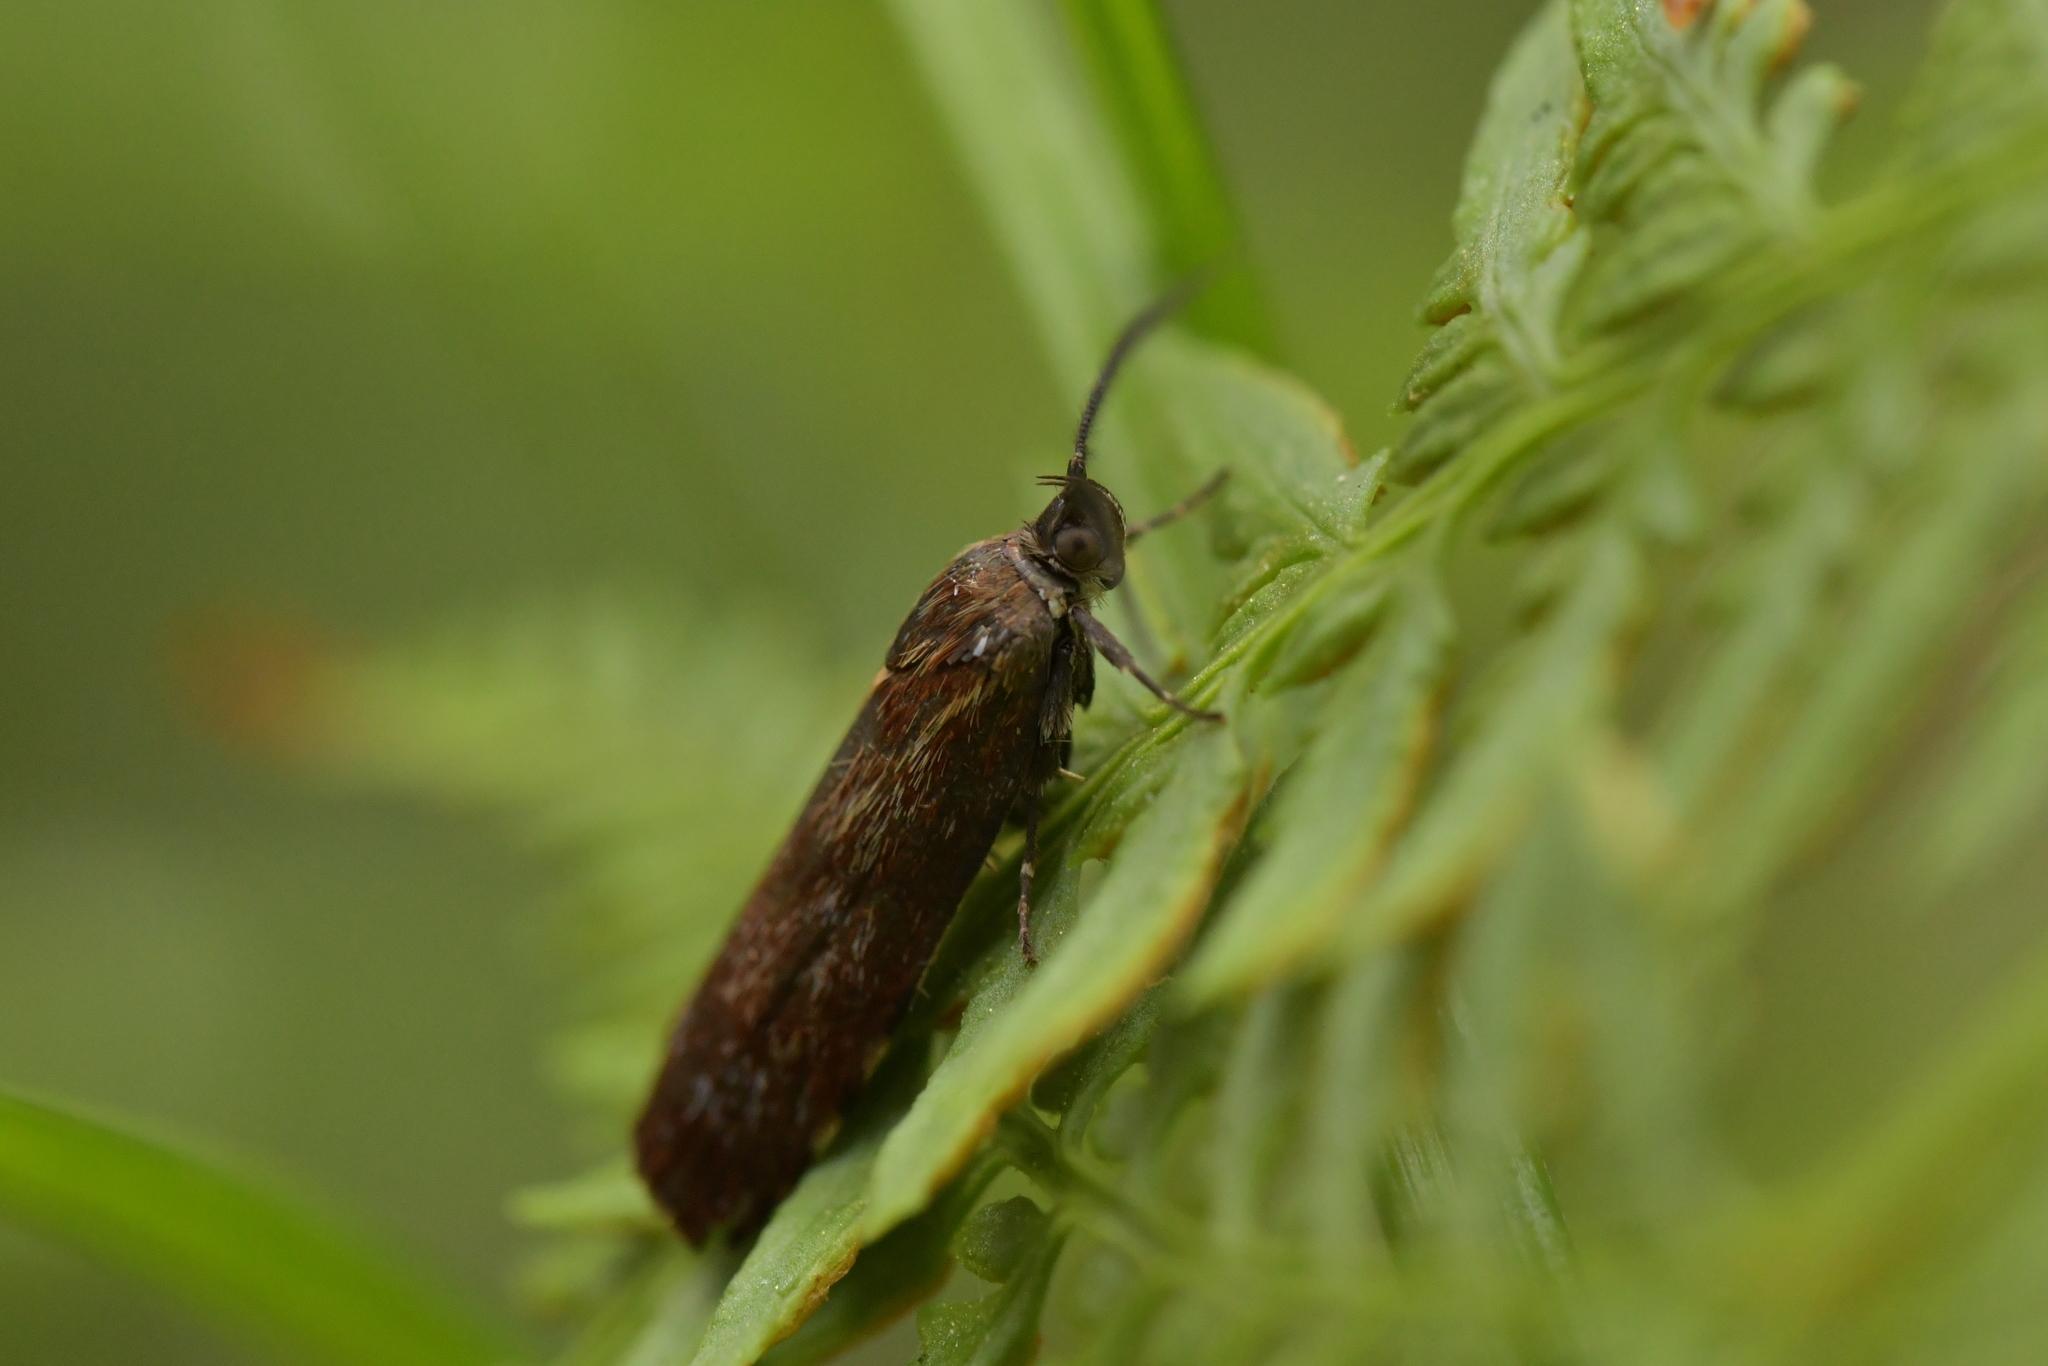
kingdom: Animalia
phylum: Arthropoda
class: Insecta
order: Lepidoptera
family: Oecophoridae
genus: Hierodoris
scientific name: Hierodoris atychioides
